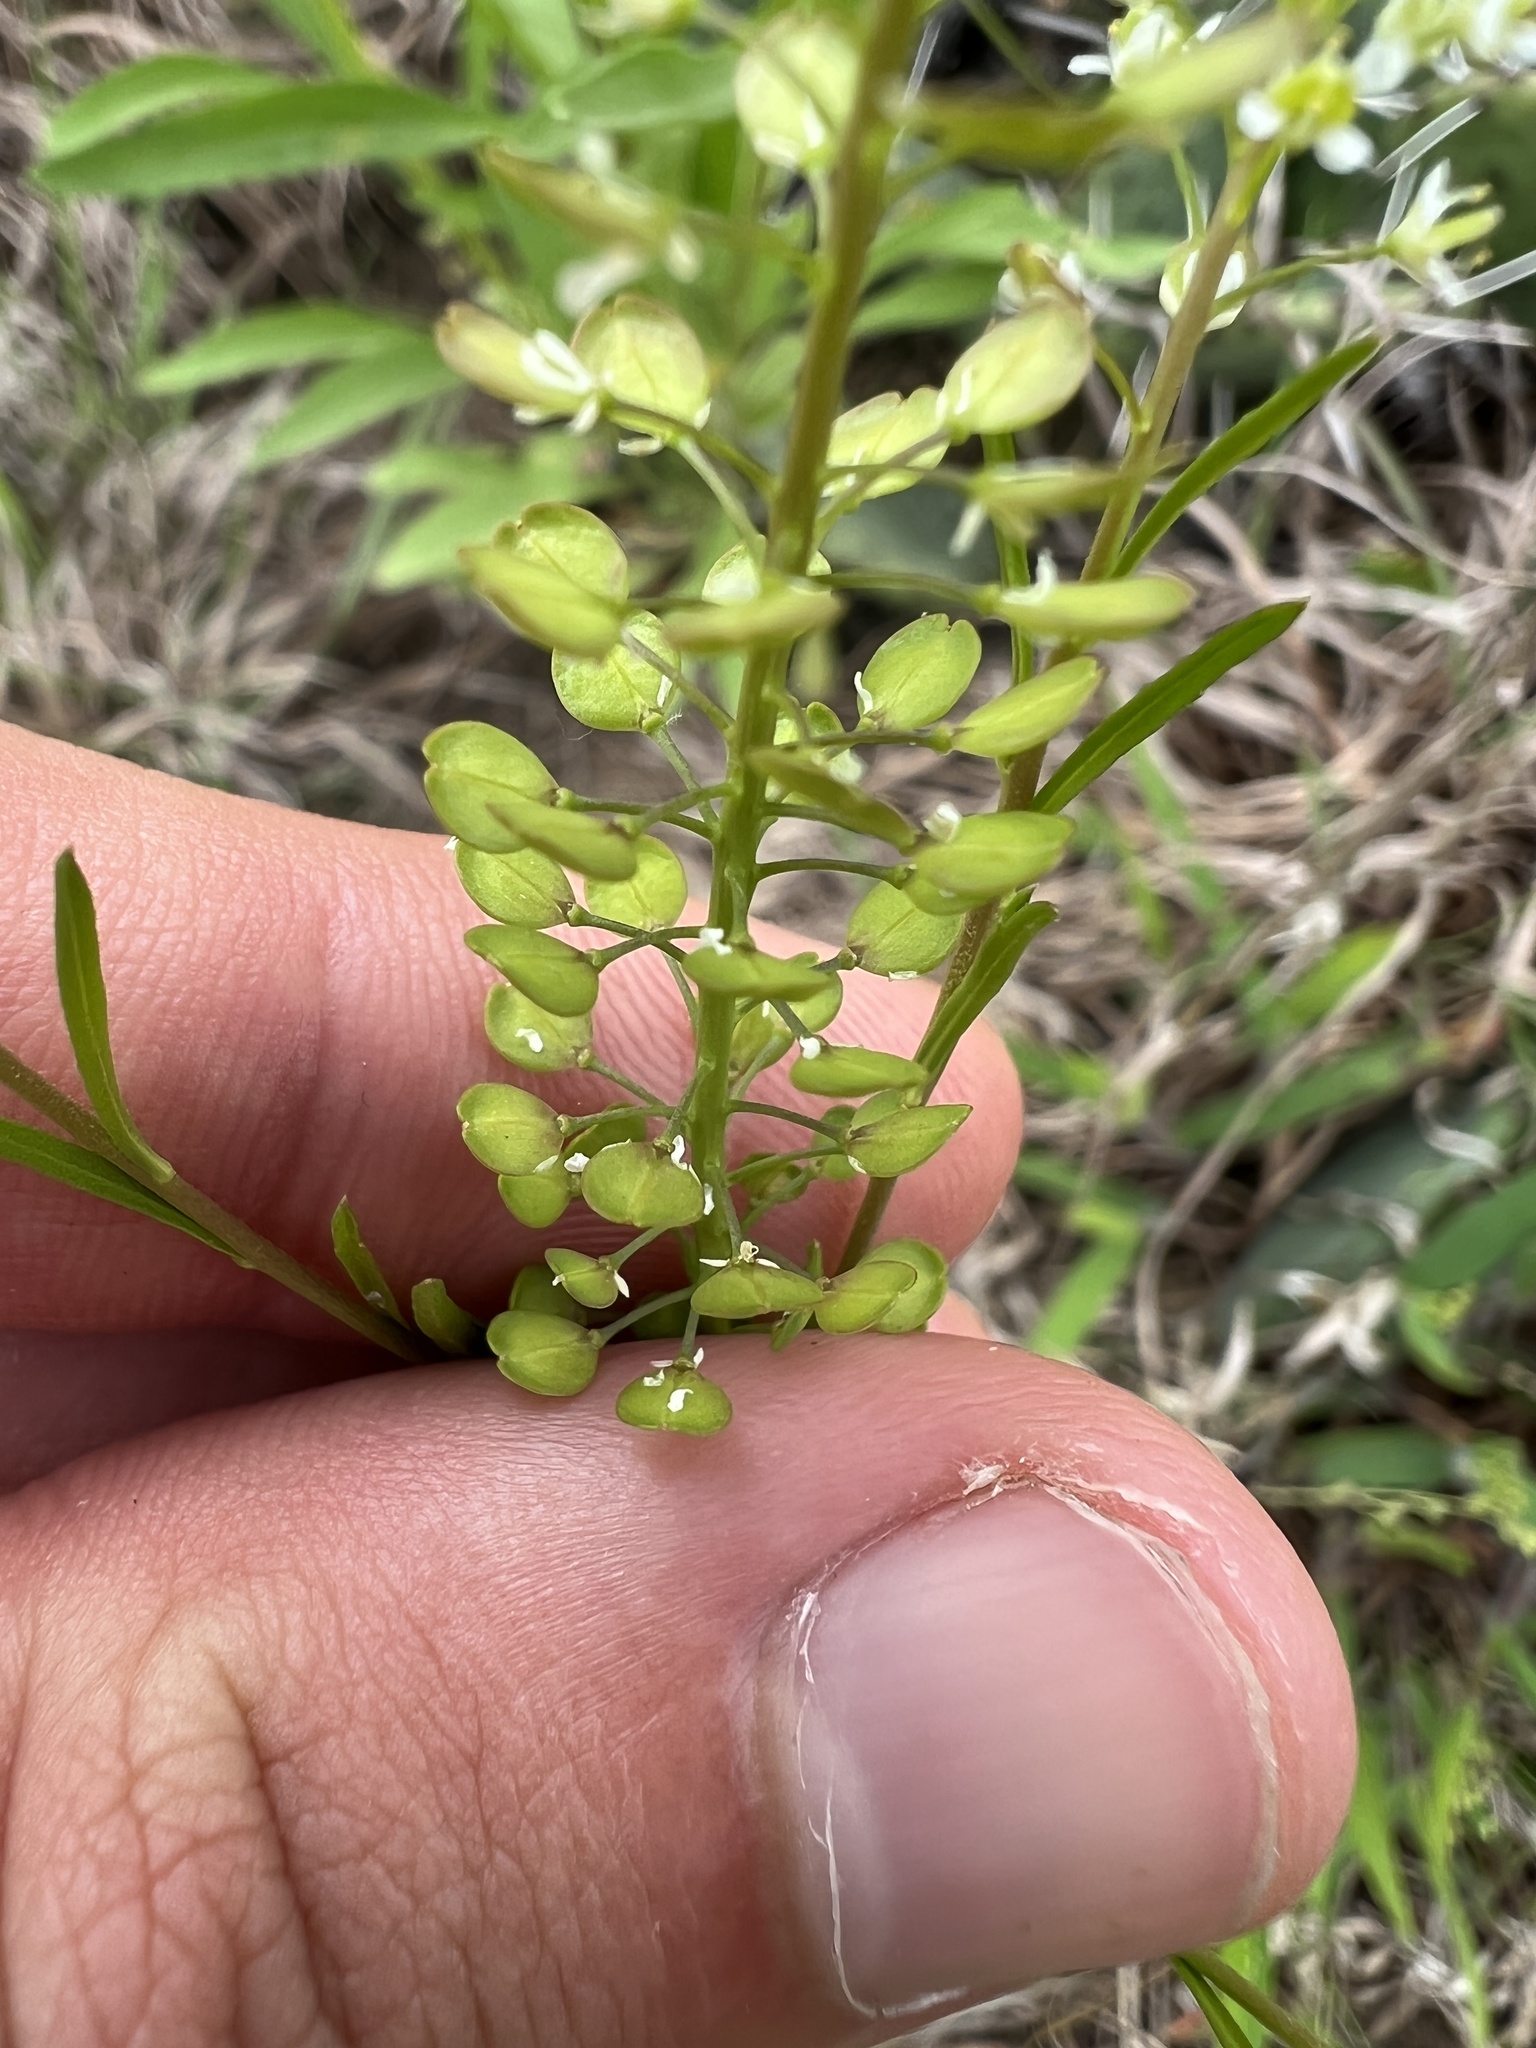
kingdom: Plantae
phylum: Tracheophyta
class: Magnoliopsida
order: Brassicales
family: Brassicaceae
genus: Lepidium
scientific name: Lepidium virginicum
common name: Least pepperwort
